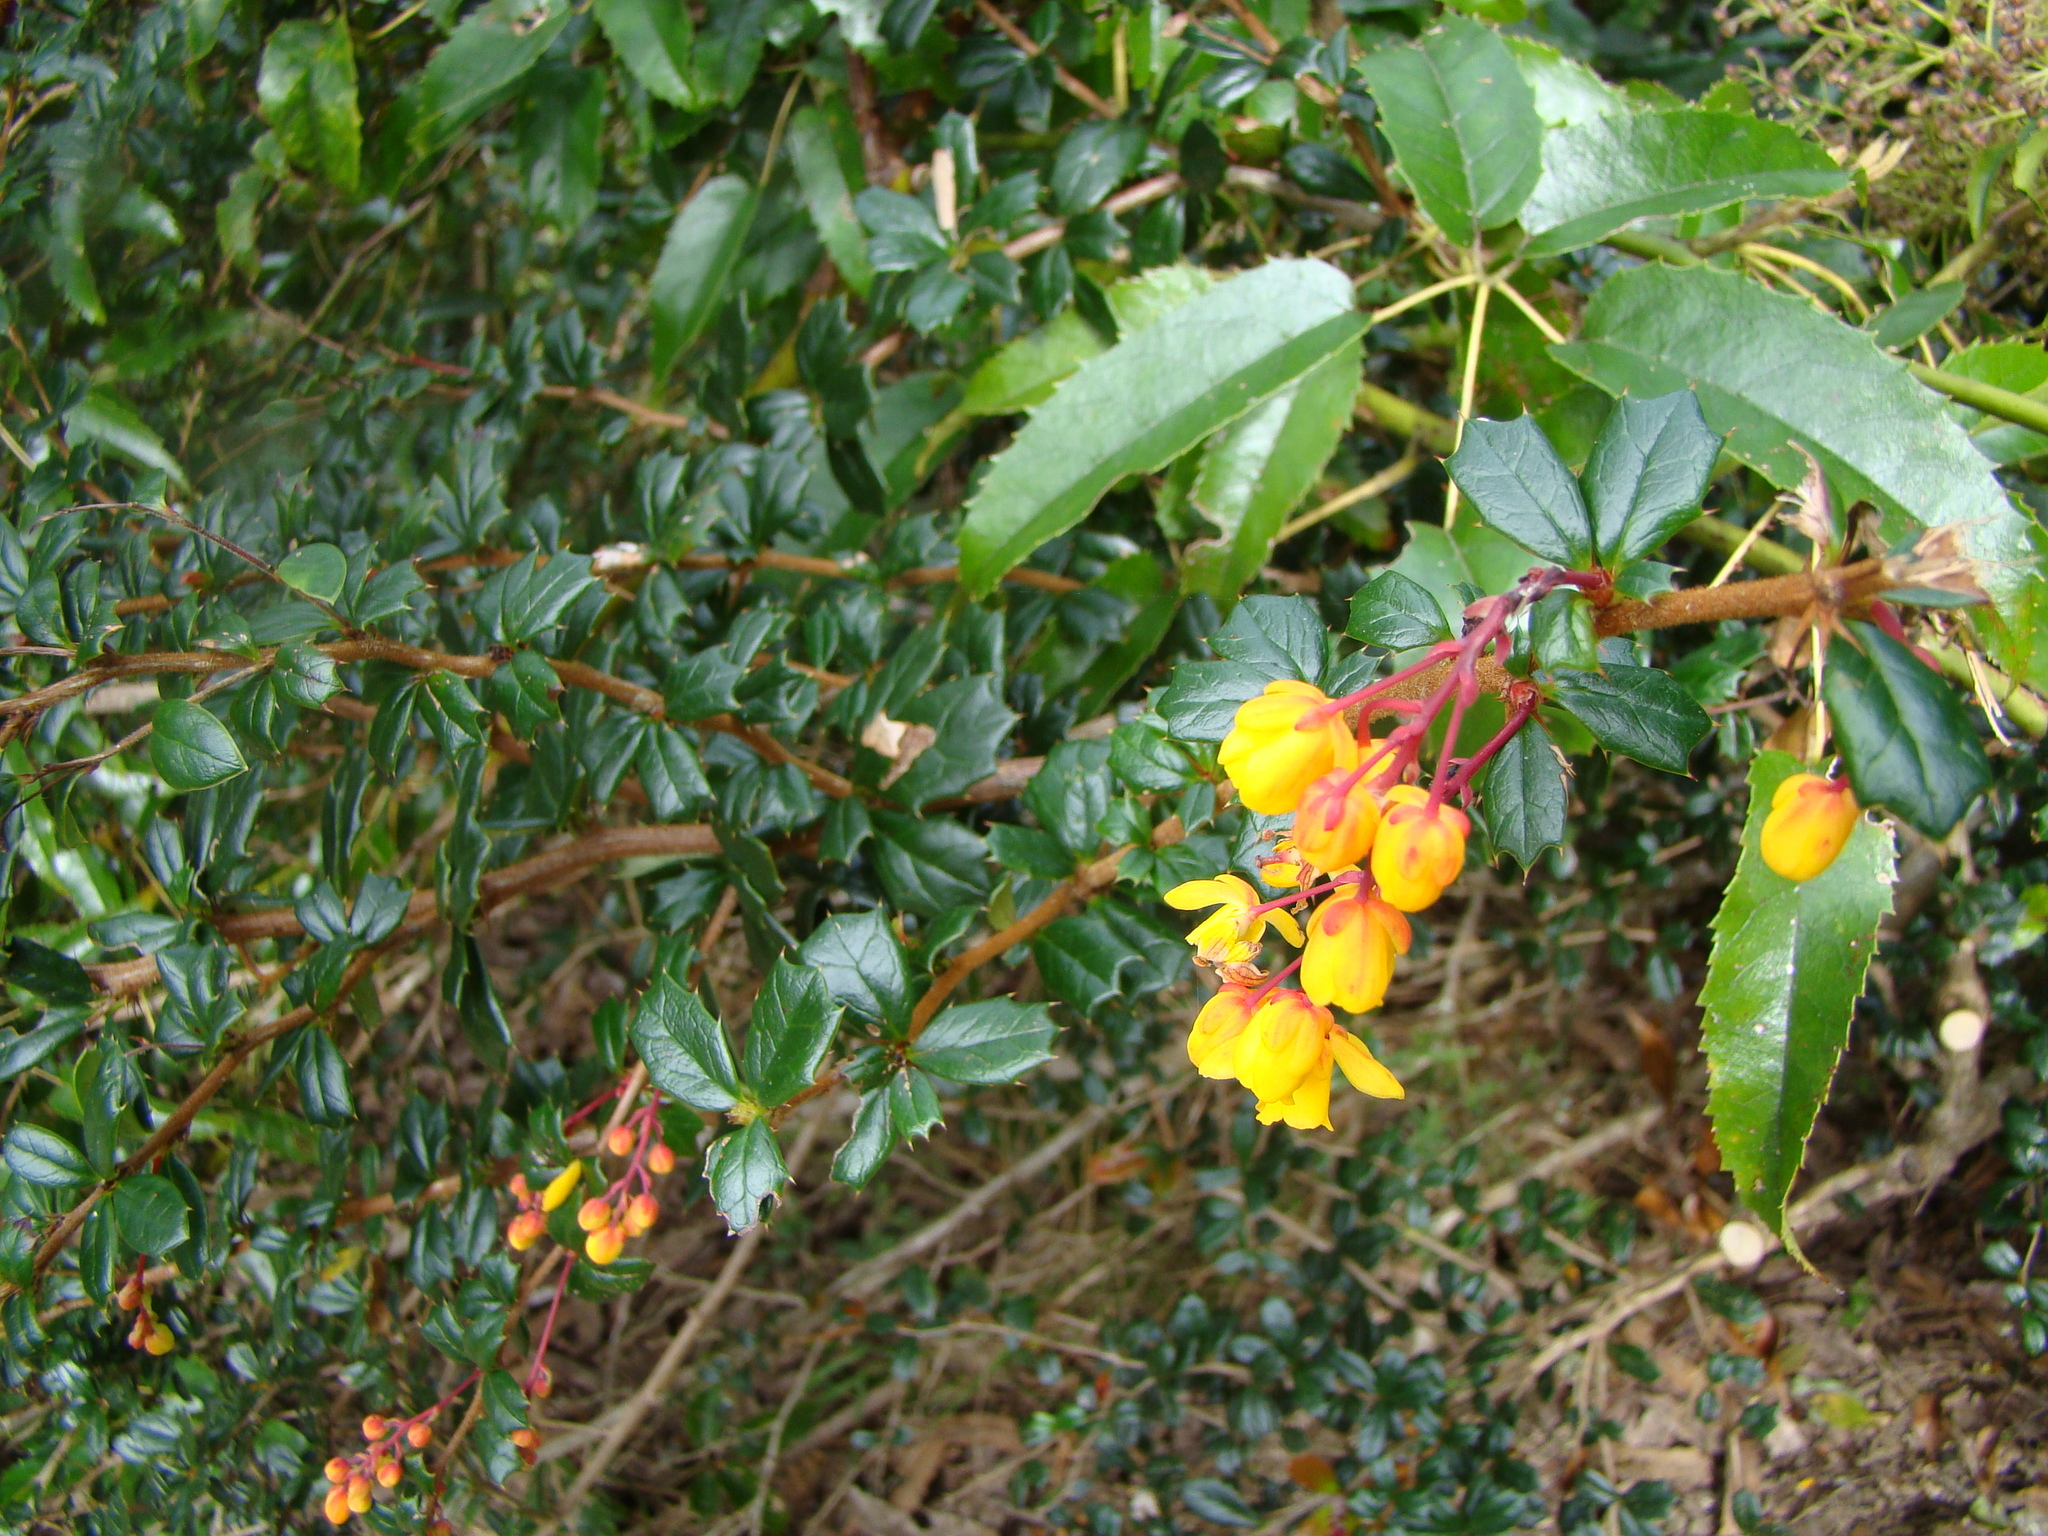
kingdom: Plantae
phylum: Tracheophyta
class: Magnoliopsida
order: Ranunculales
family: Berberidaceae
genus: Berberis
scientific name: Berberis darwinii
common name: Darwin's barberry
